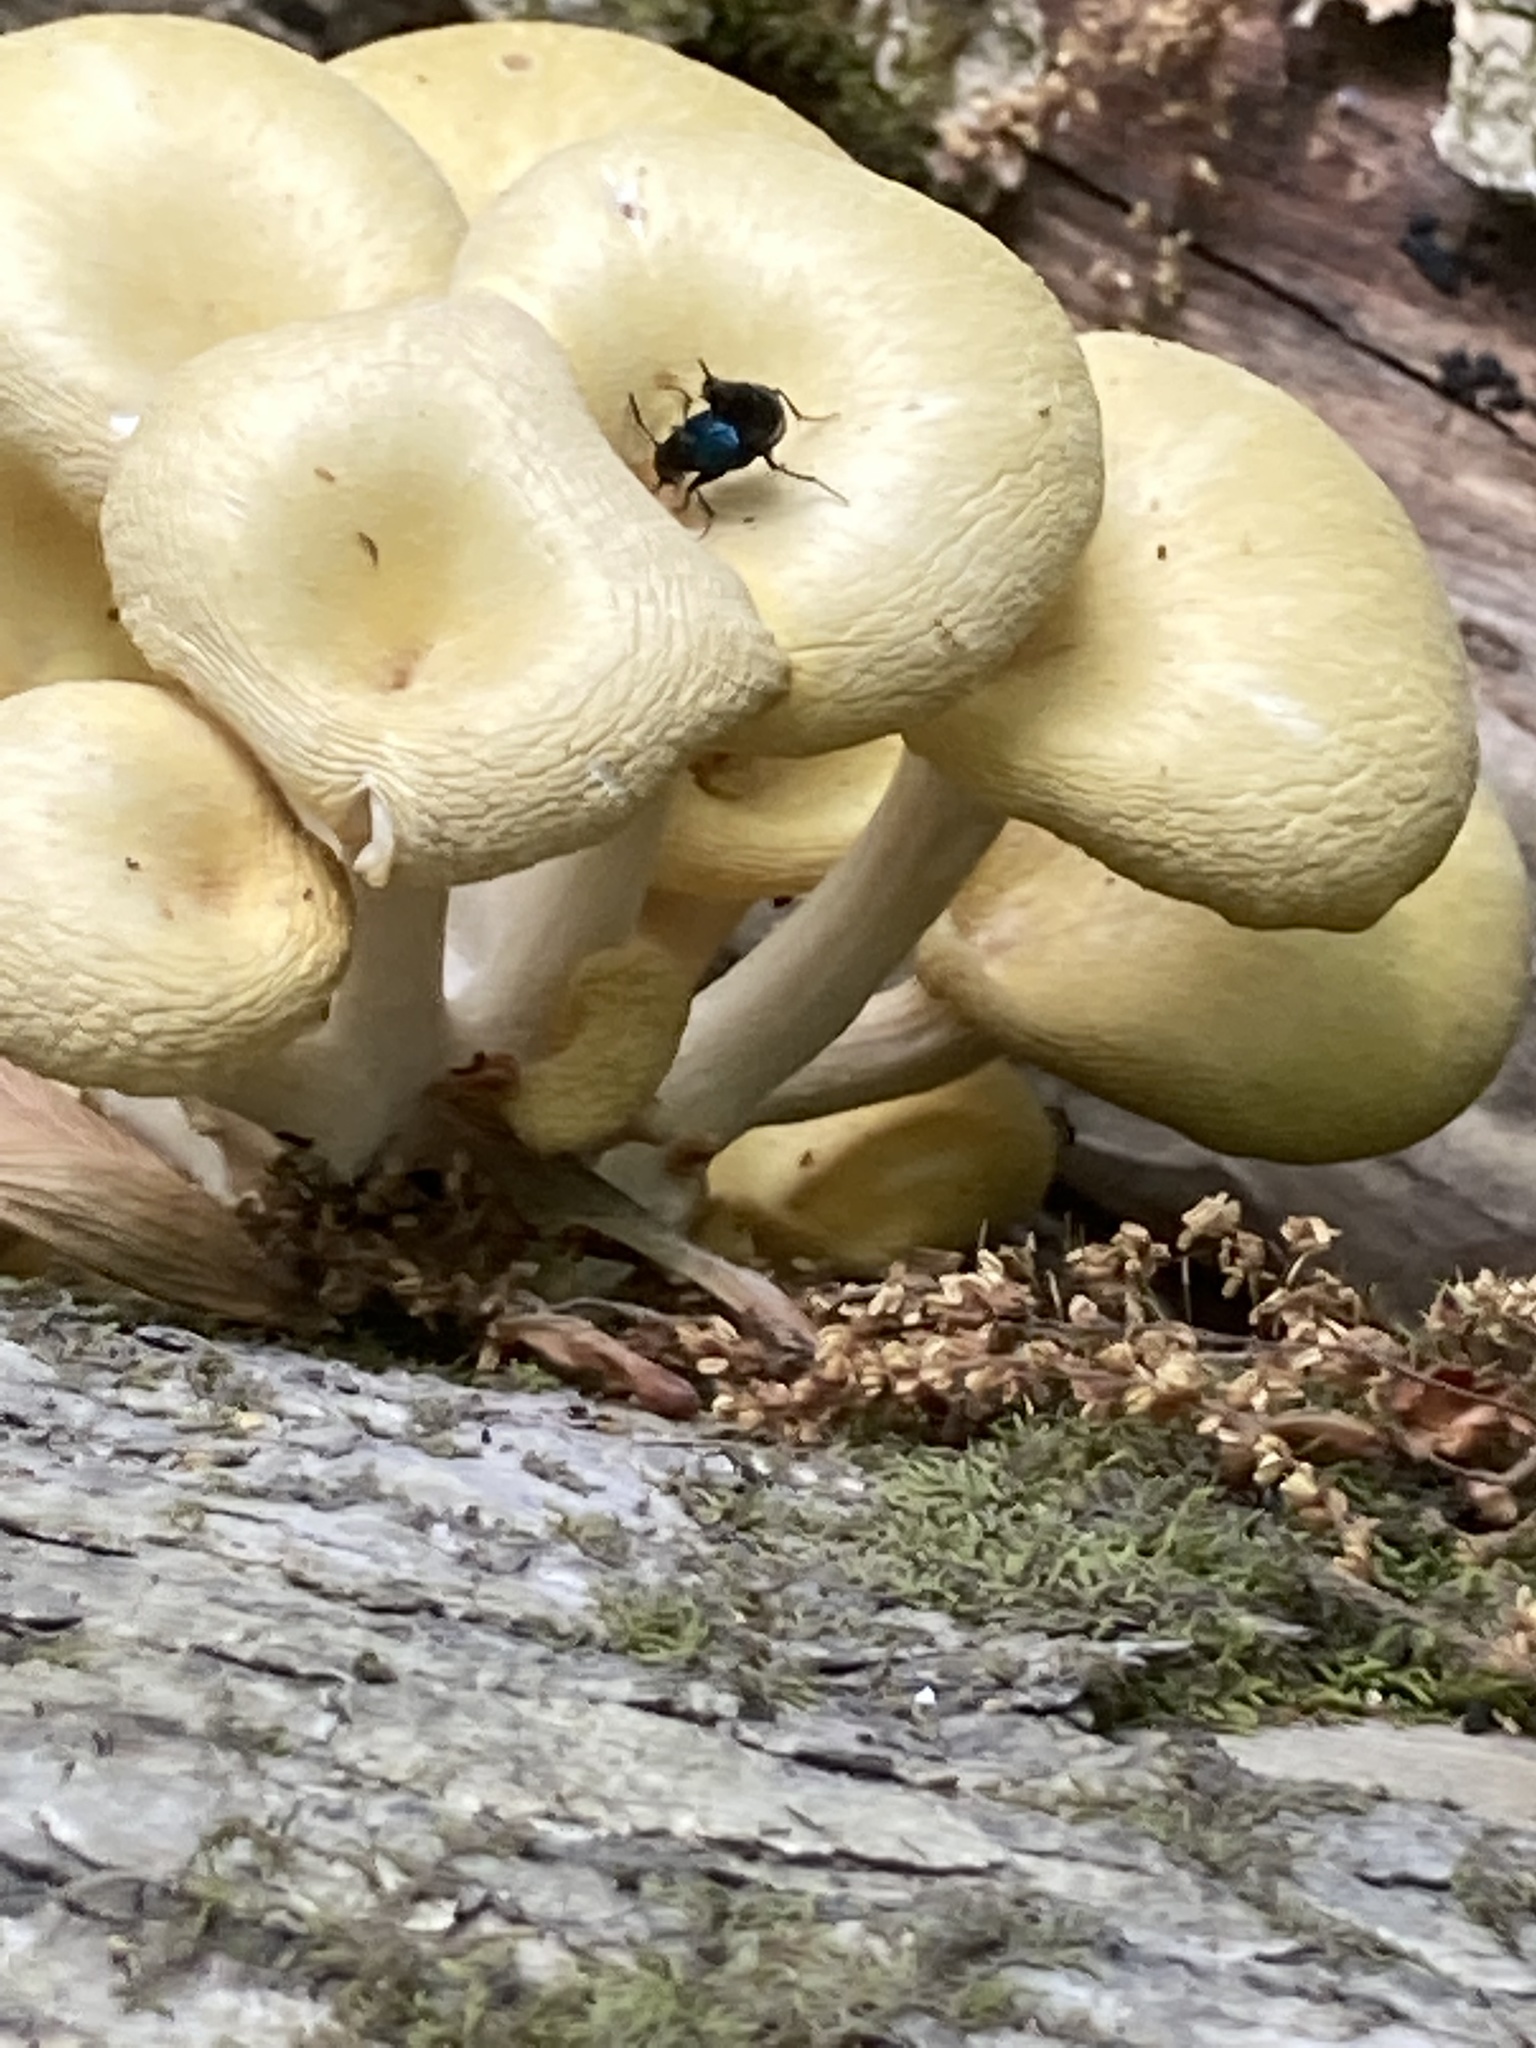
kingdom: Animalia
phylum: Arthropoda
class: Insecta
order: Coleoptera
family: Staphylinidae
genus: Philonthus
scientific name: Philonthus caeruleipennis
